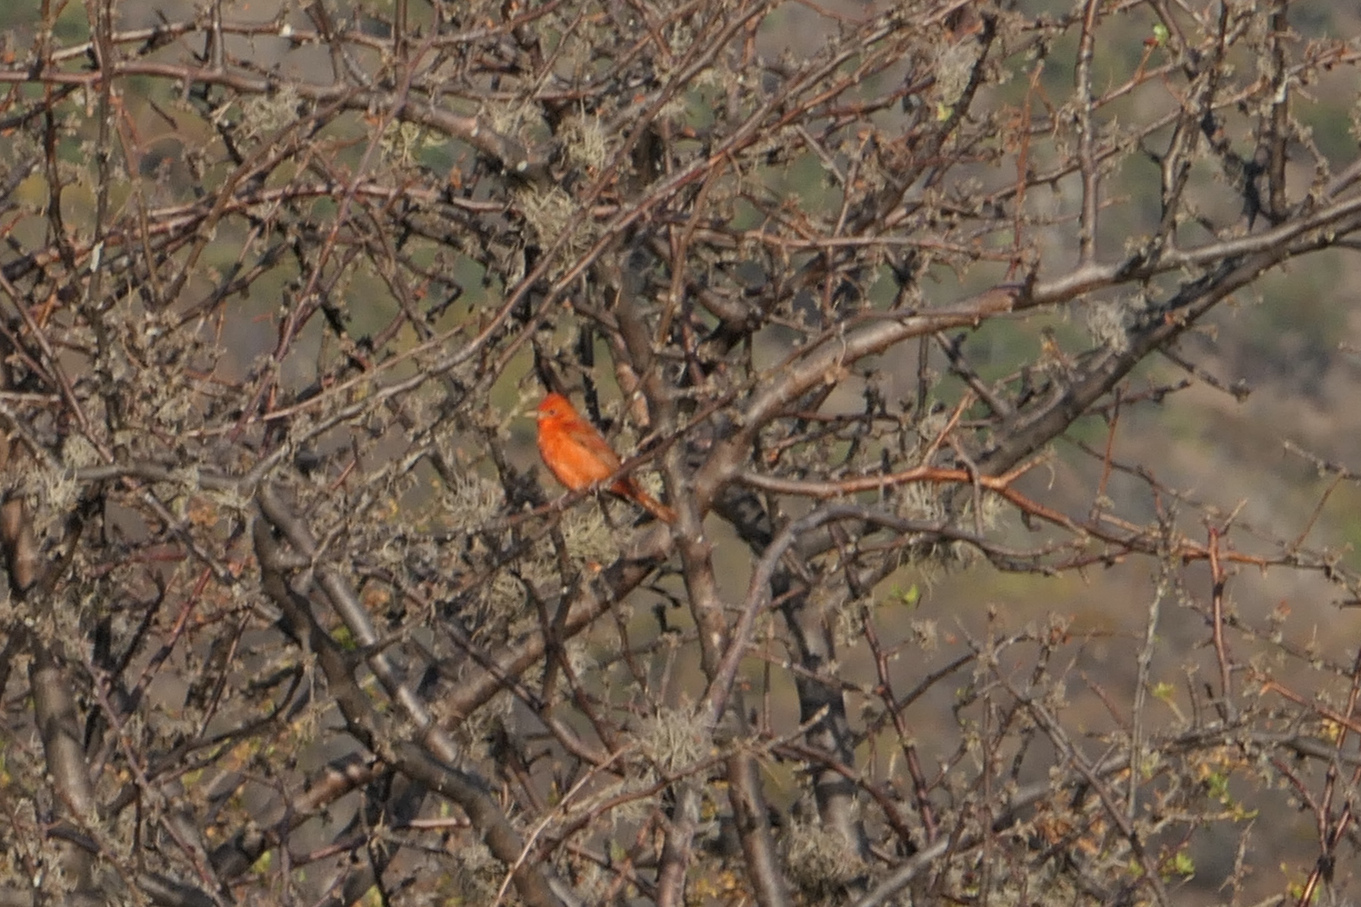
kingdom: Animalia
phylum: Chordata
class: Aves
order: Passeriformes
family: Cardinalidae
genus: Piranga
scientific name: Piranga rubra
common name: Summer tanager
